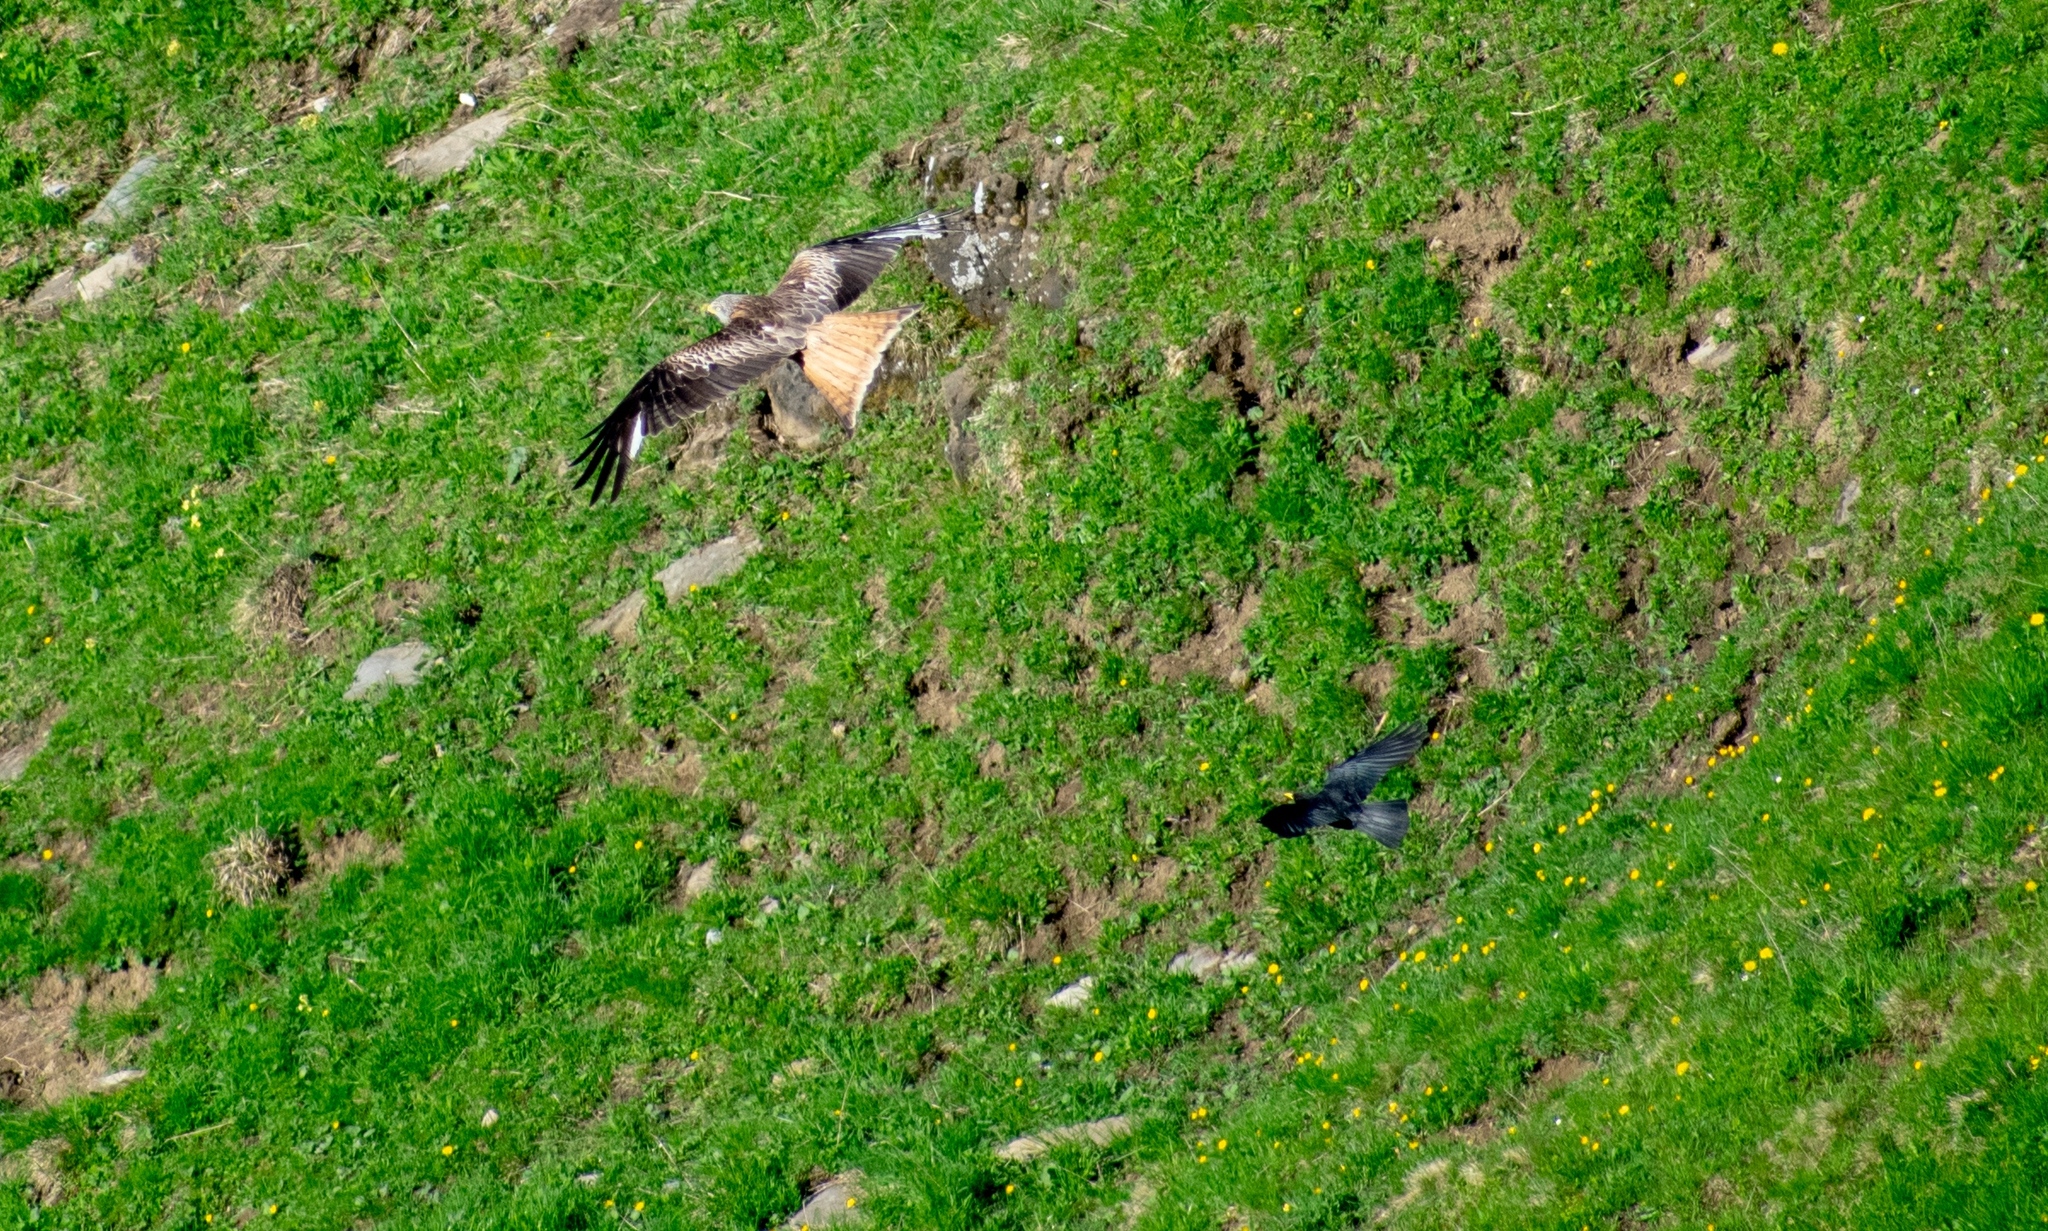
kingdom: Animalia
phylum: Chordata
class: Aves
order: Passeriformes
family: Corvidae
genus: Pyrrhocorax
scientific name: Pyrrhocorax graculus
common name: Alpine chough
